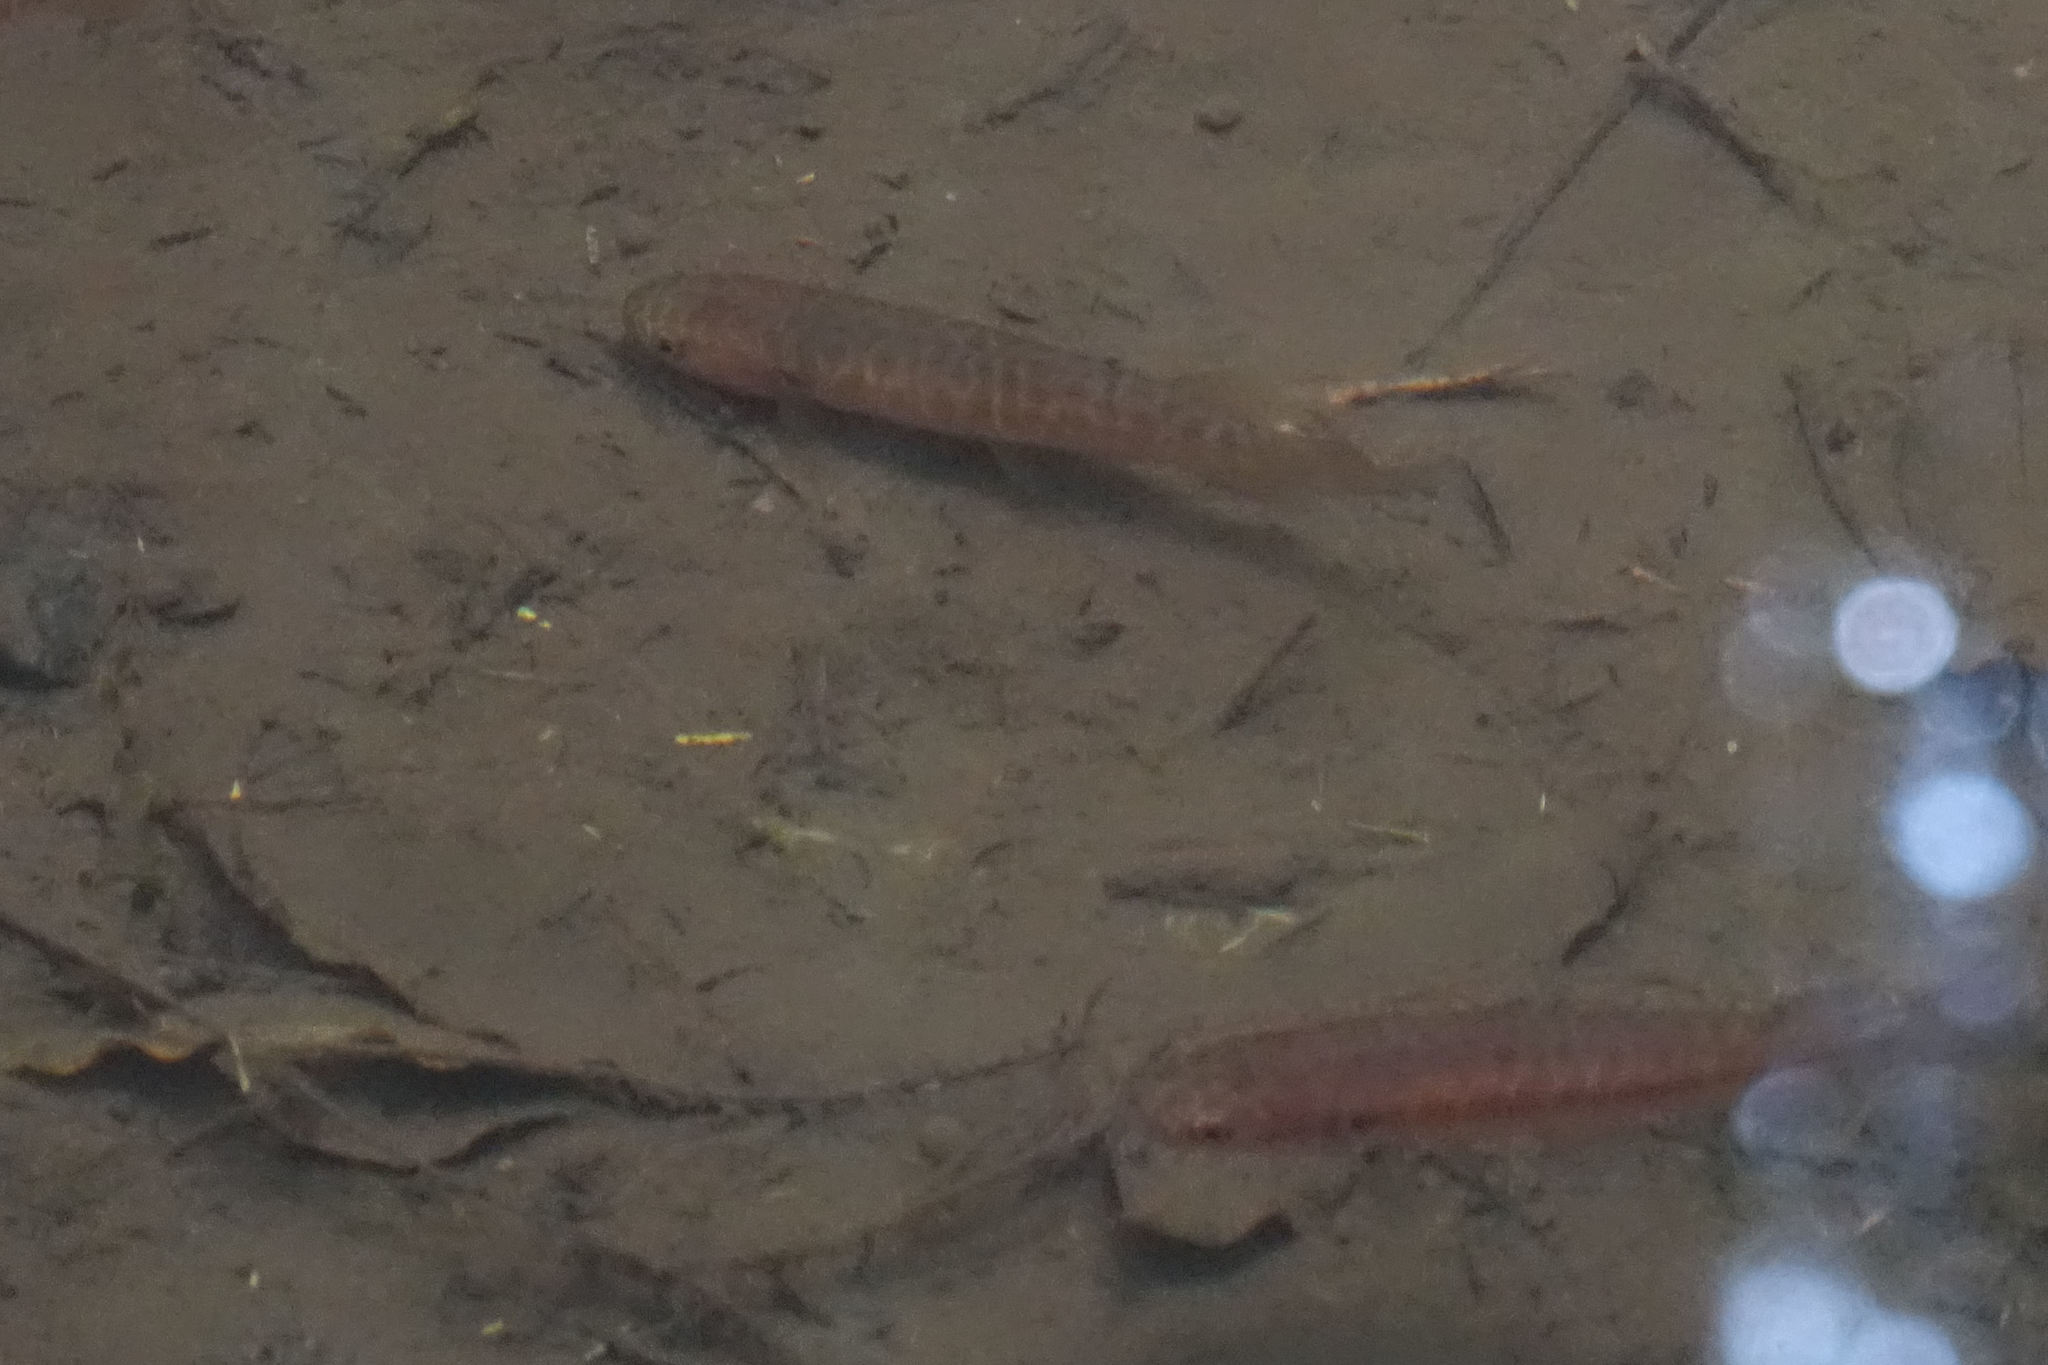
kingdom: Animalia
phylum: Chordata
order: Osmeriformes
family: Galaxiidae
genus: Galaxias
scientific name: Galaxias fasciatus
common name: Banded kokopu
